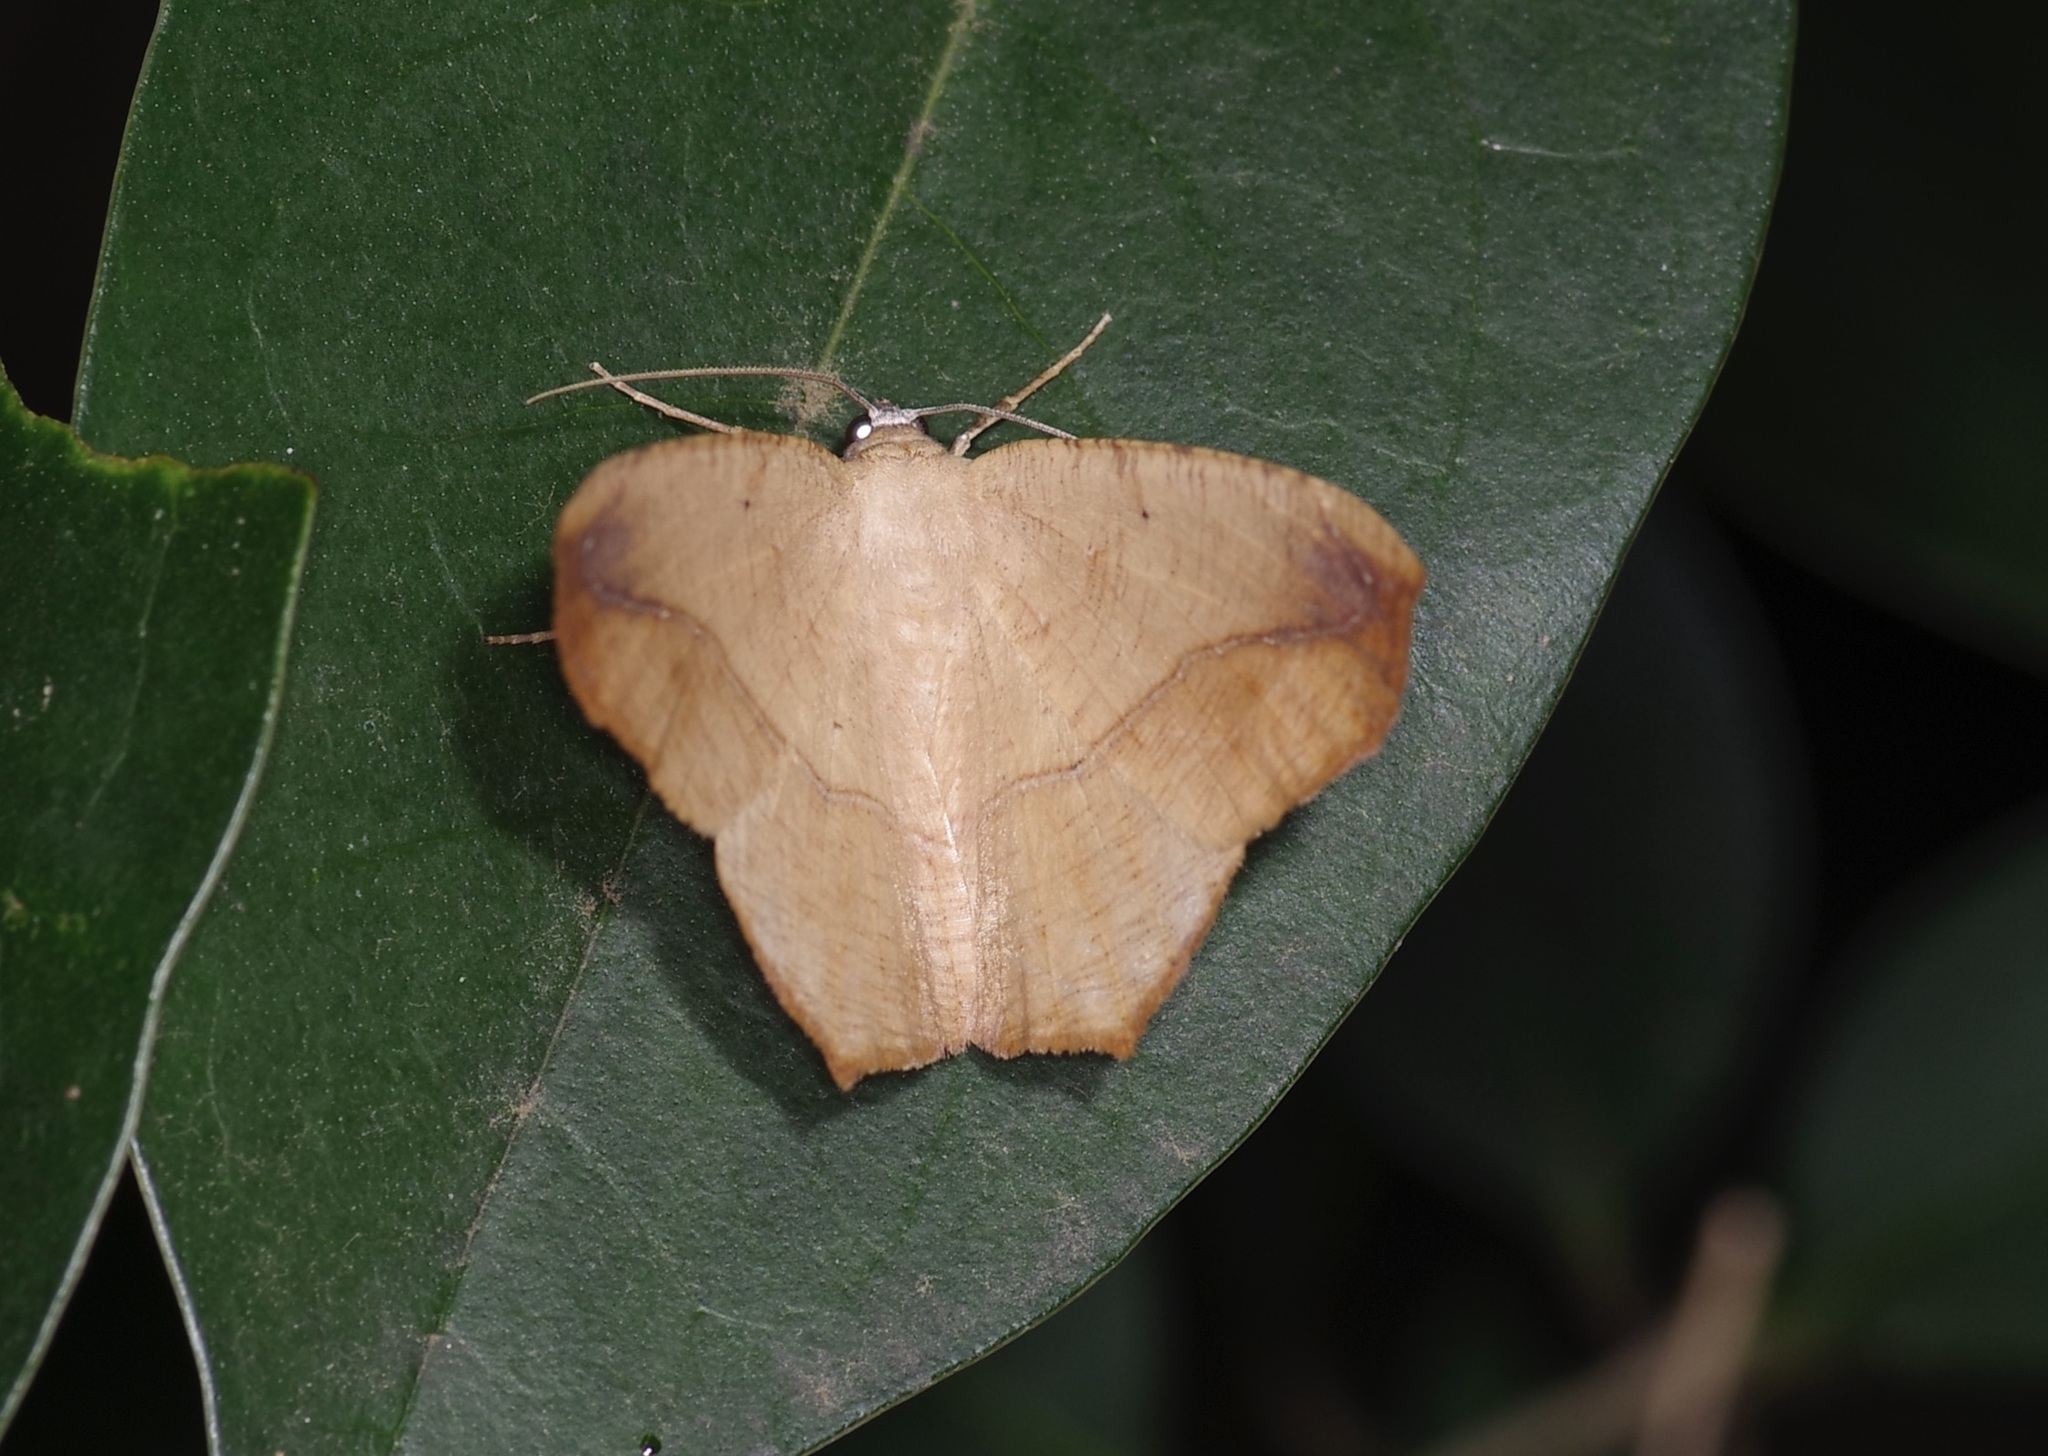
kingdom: Animalia
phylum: Arthropoda
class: Insecta
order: Lepidoptera
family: Geometridae
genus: Prochoerodes
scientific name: Prochoerodes lineola
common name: Large maple spanworm
